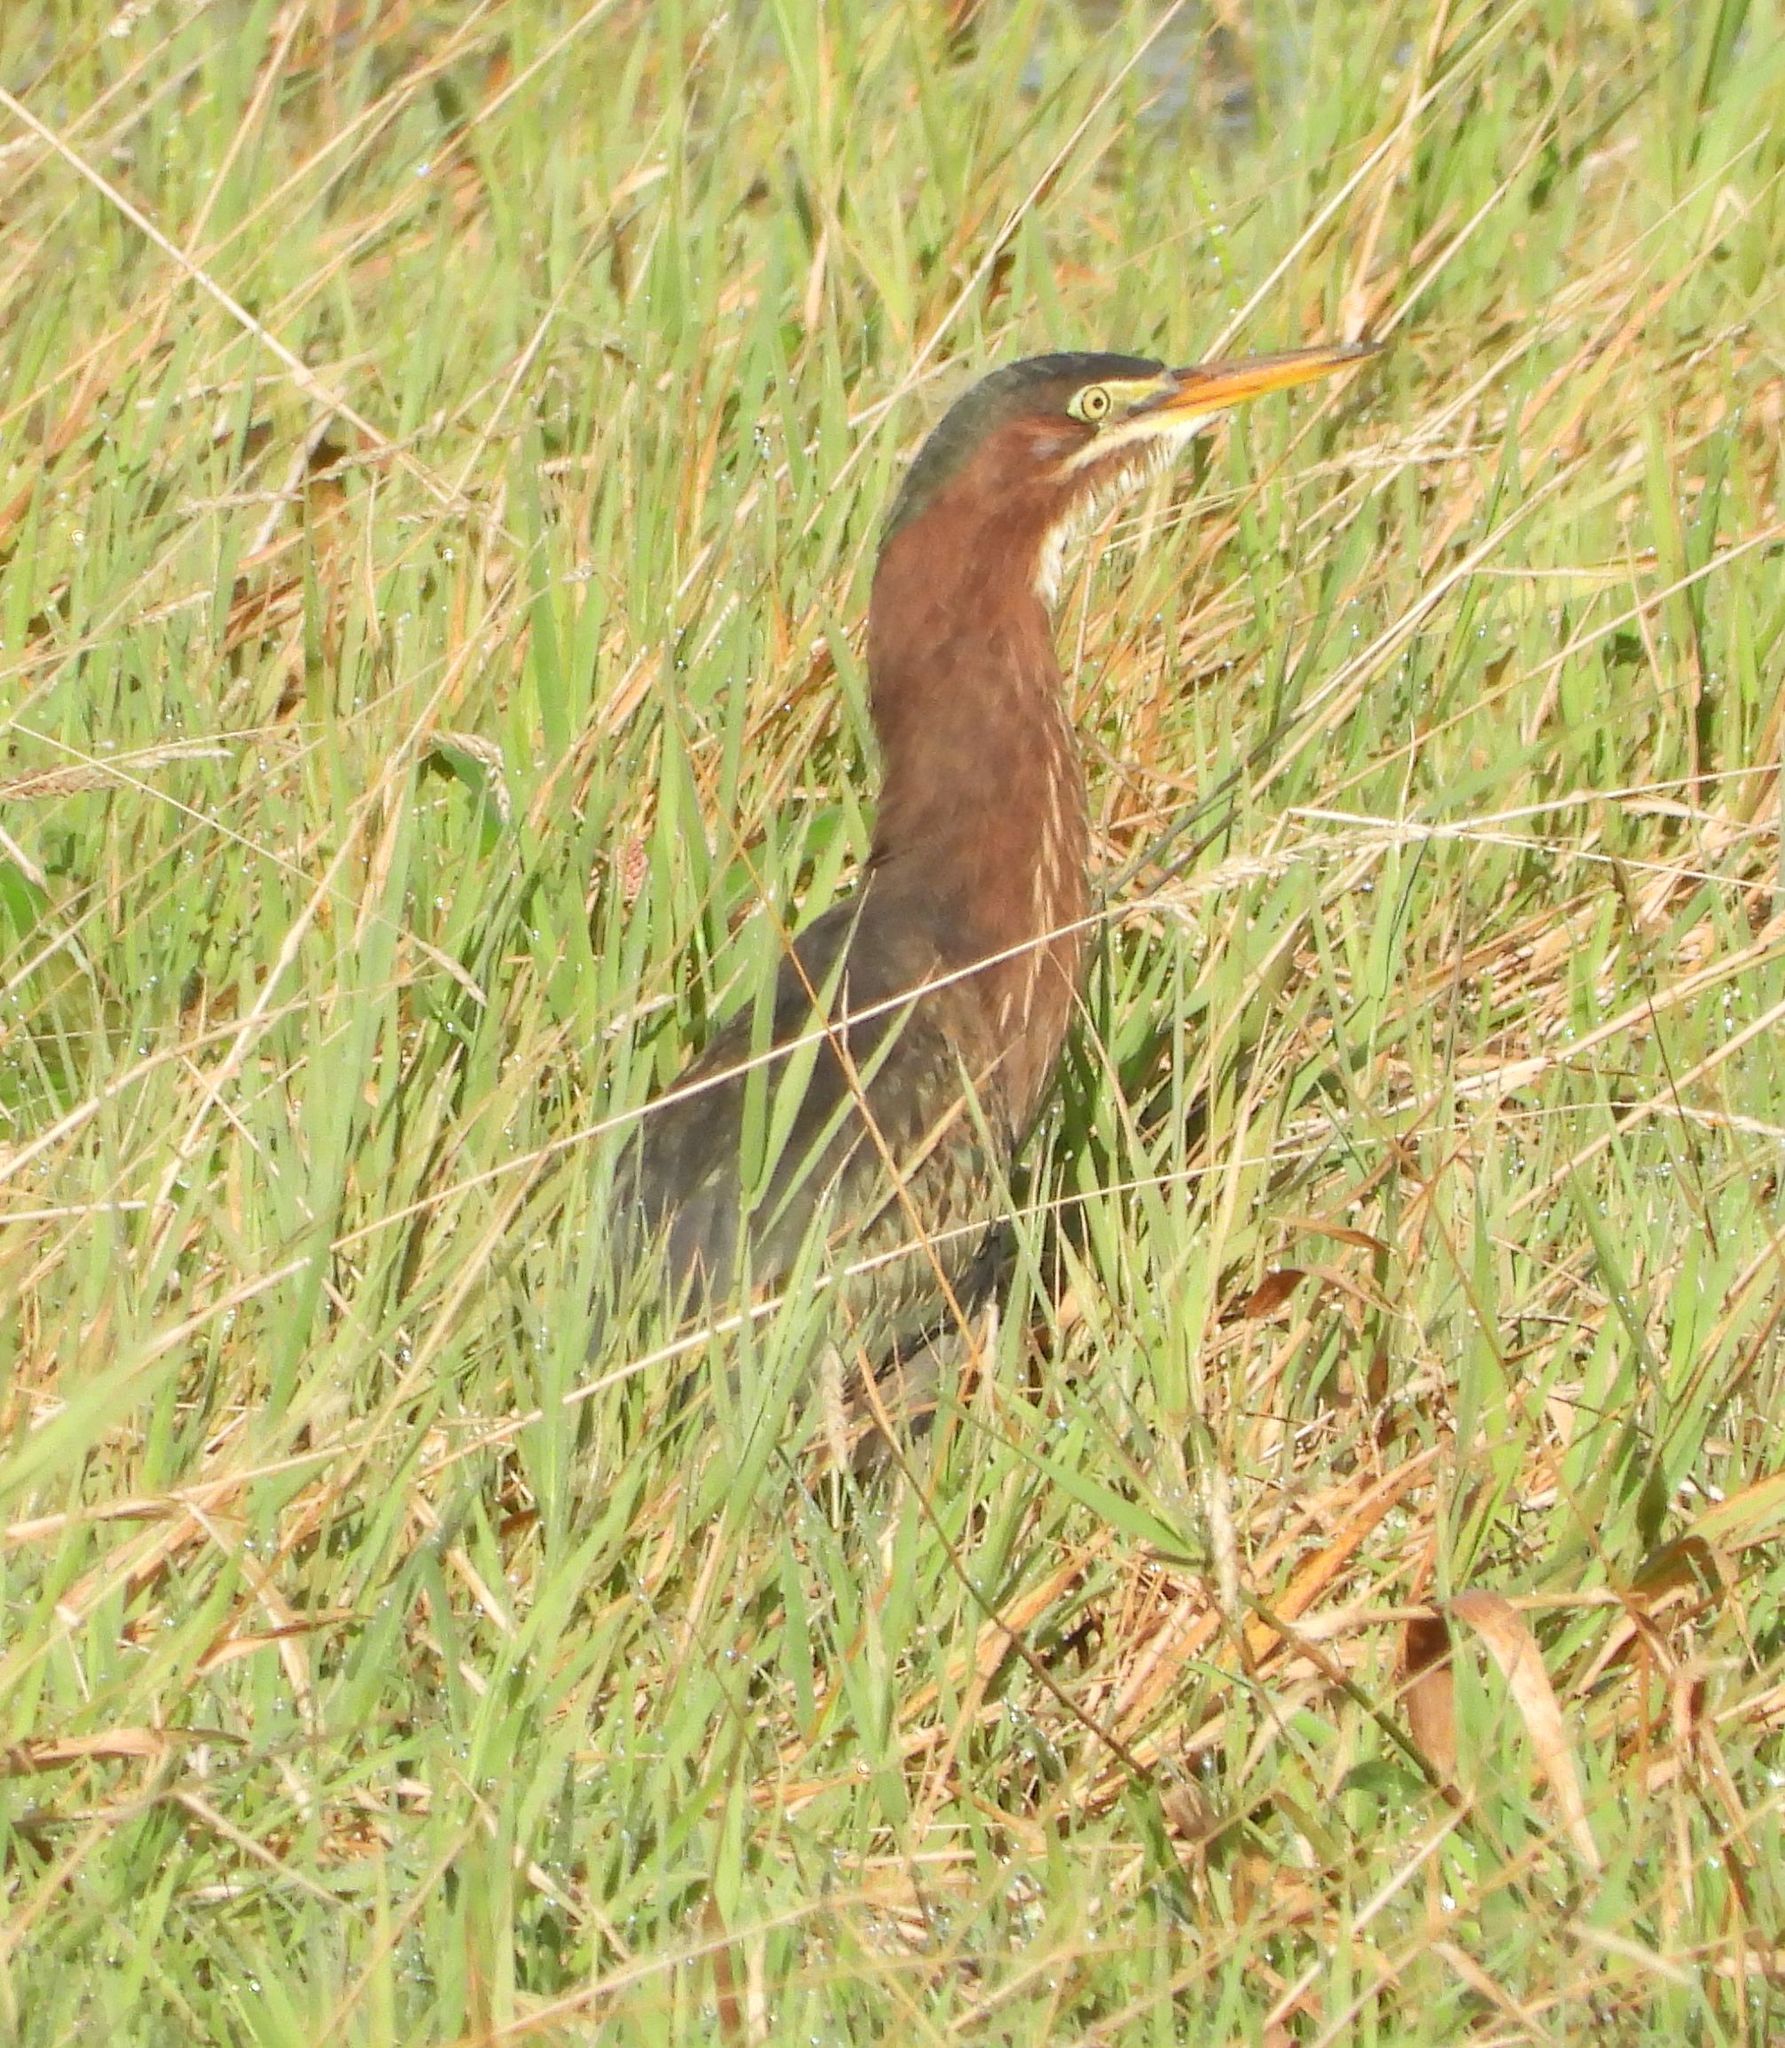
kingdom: Animalia
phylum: Chordata
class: Aves
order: Pelecaniformes
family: Ardeidae
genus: Butorides
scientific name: Butorides virescens
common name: Green heron
